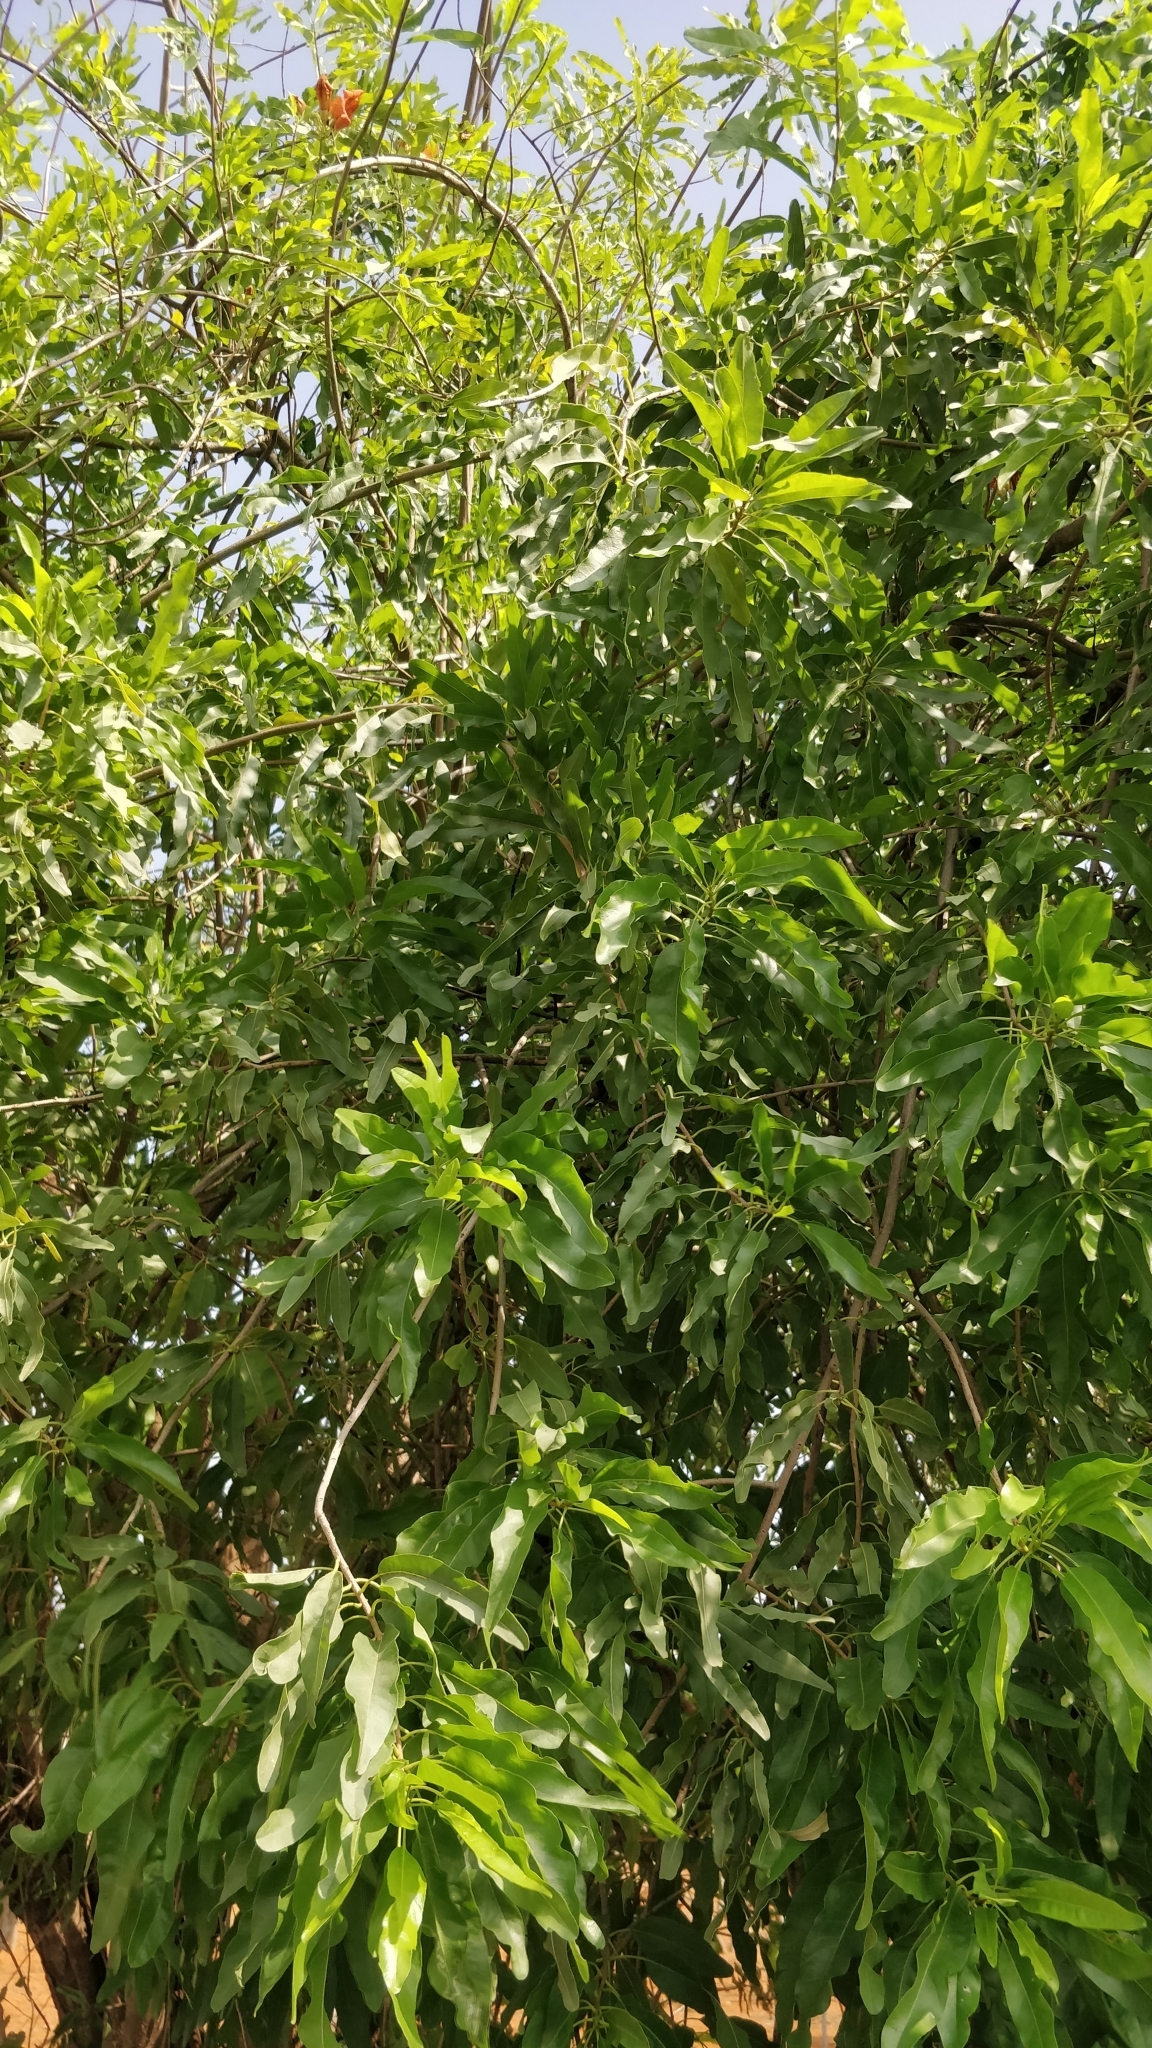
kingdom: Plantae
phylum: Tracheophyta
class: Magnoliopsida
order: Lamiales
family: Bignoniaceae
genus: Tecomella
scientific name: Tecomella undulata
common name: Desert teak
